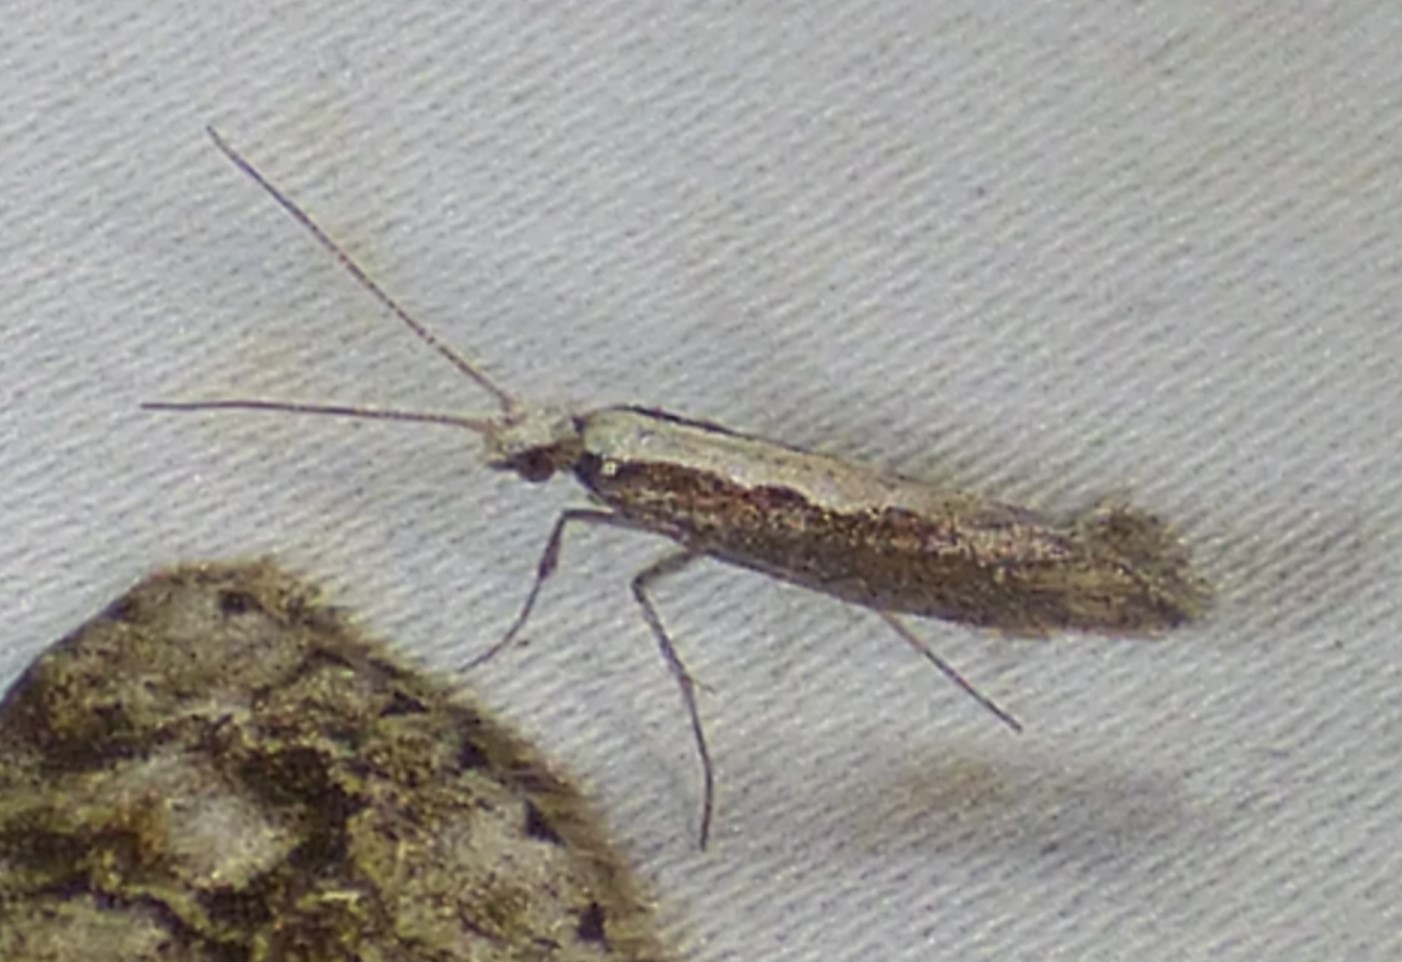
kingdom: Animalia
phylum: Arthropoda
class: Insecta
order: Lepidoptera
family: Plutellidae
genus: Plutella
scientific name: Plutella xylostella
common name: Diamond-back moth
